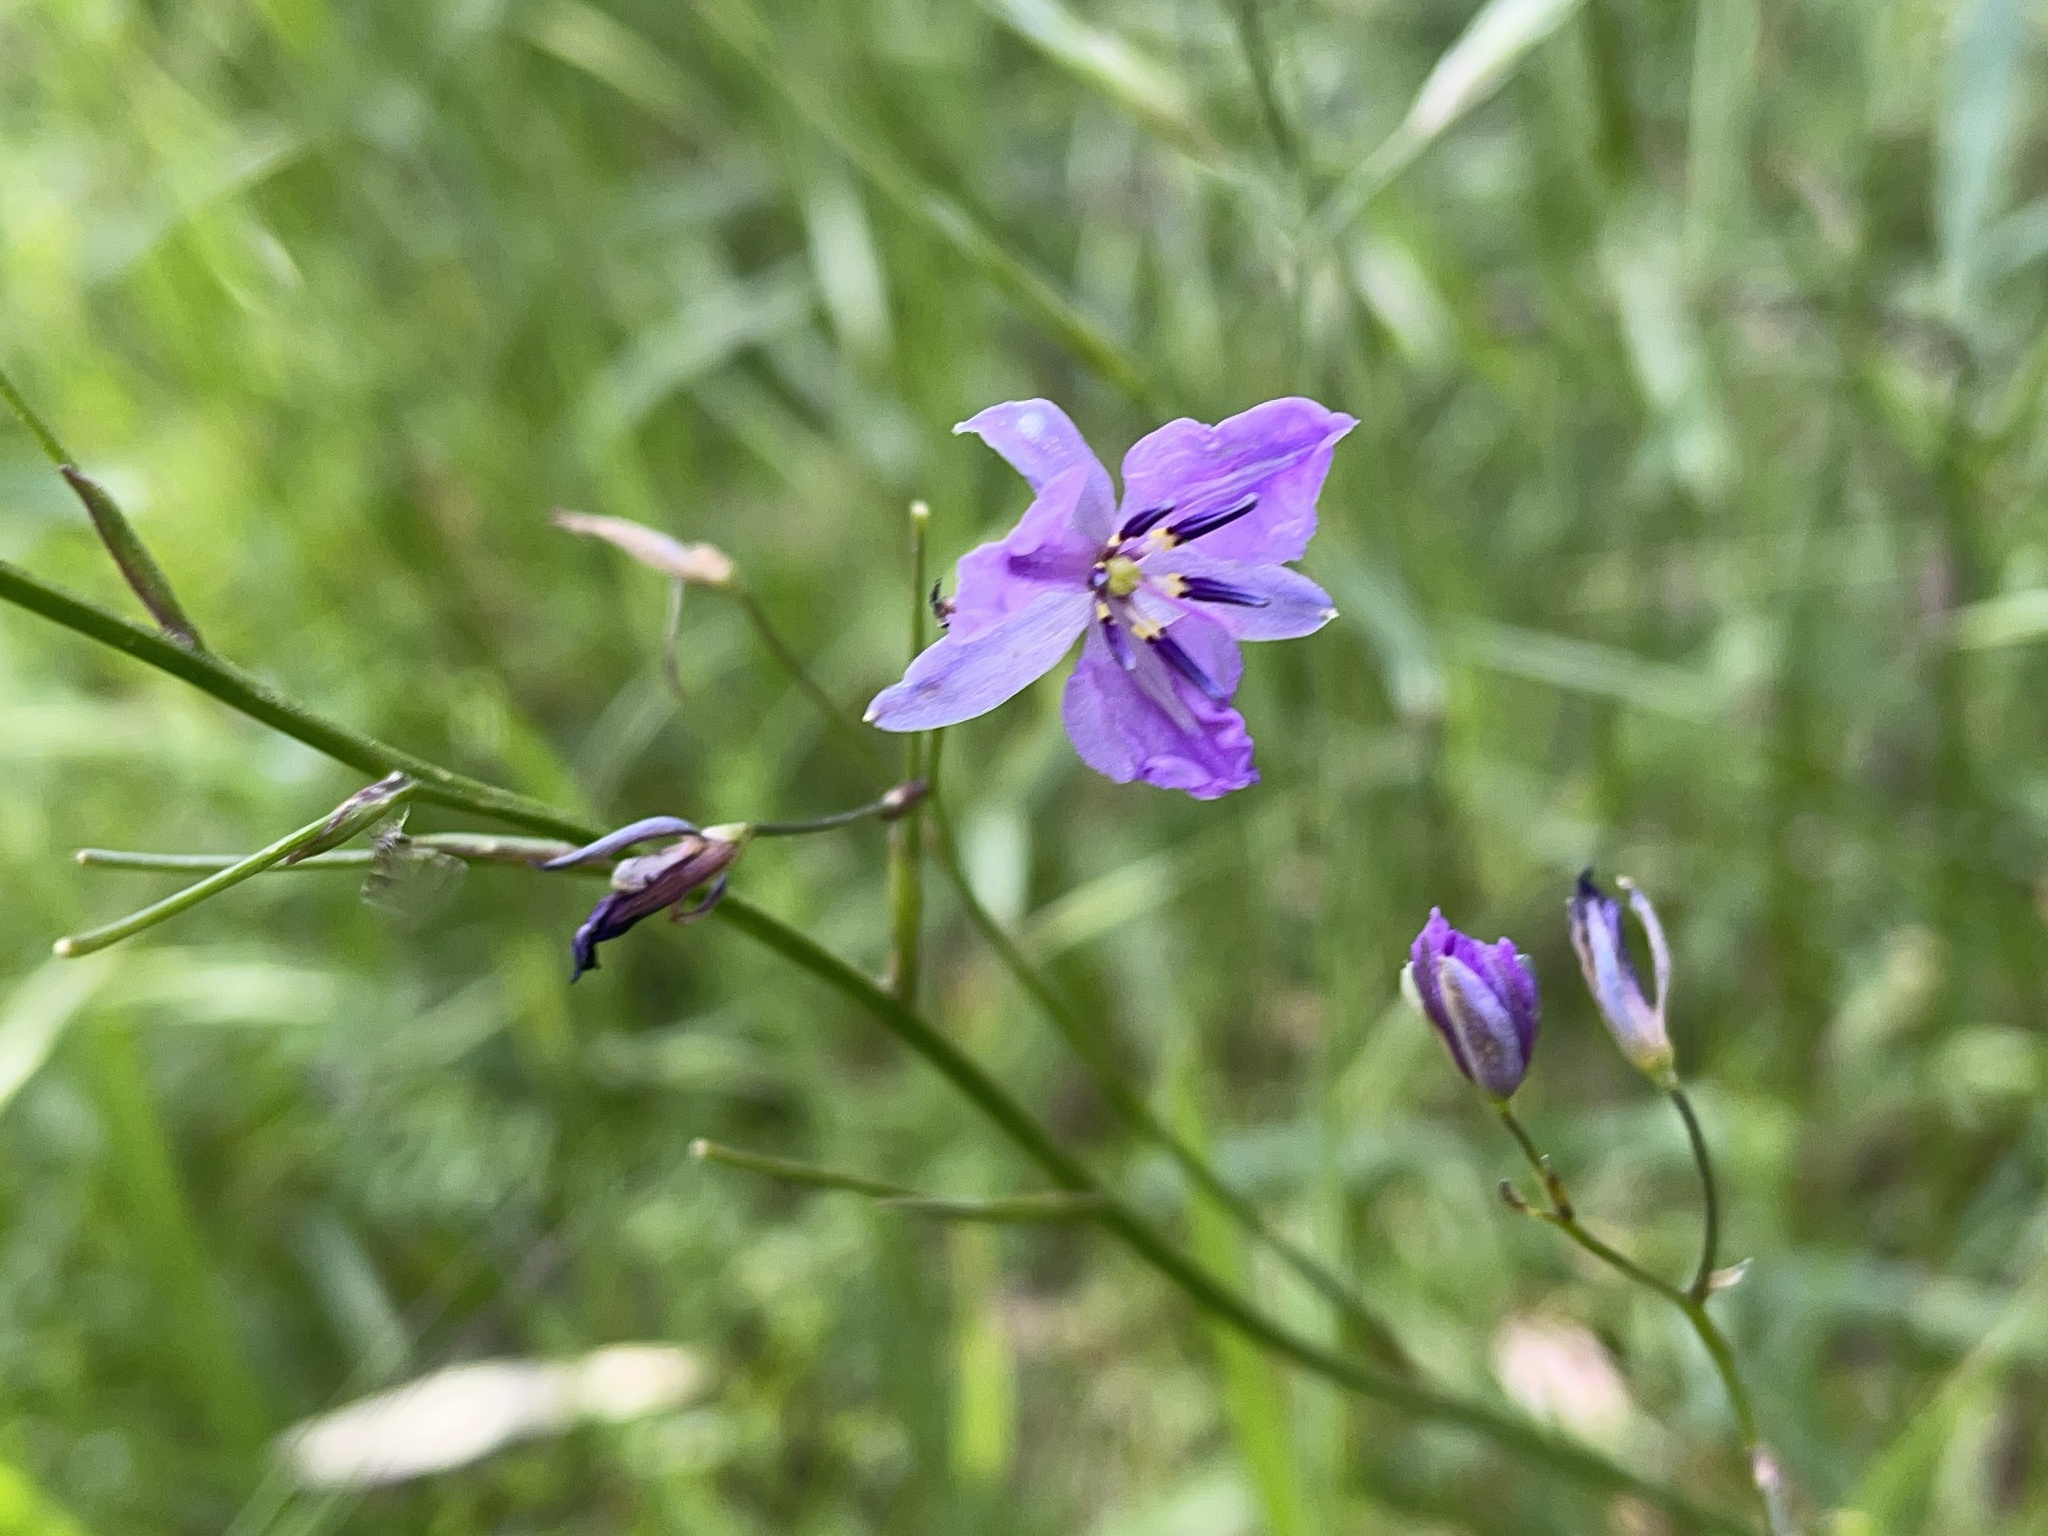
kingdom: Plantae
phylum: Tracheophyta
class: Liliopsida
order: Asparagales
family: Asparagaceae
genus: Arthropodium
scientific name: Arthropodium strictum
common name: Chocolate-lily
